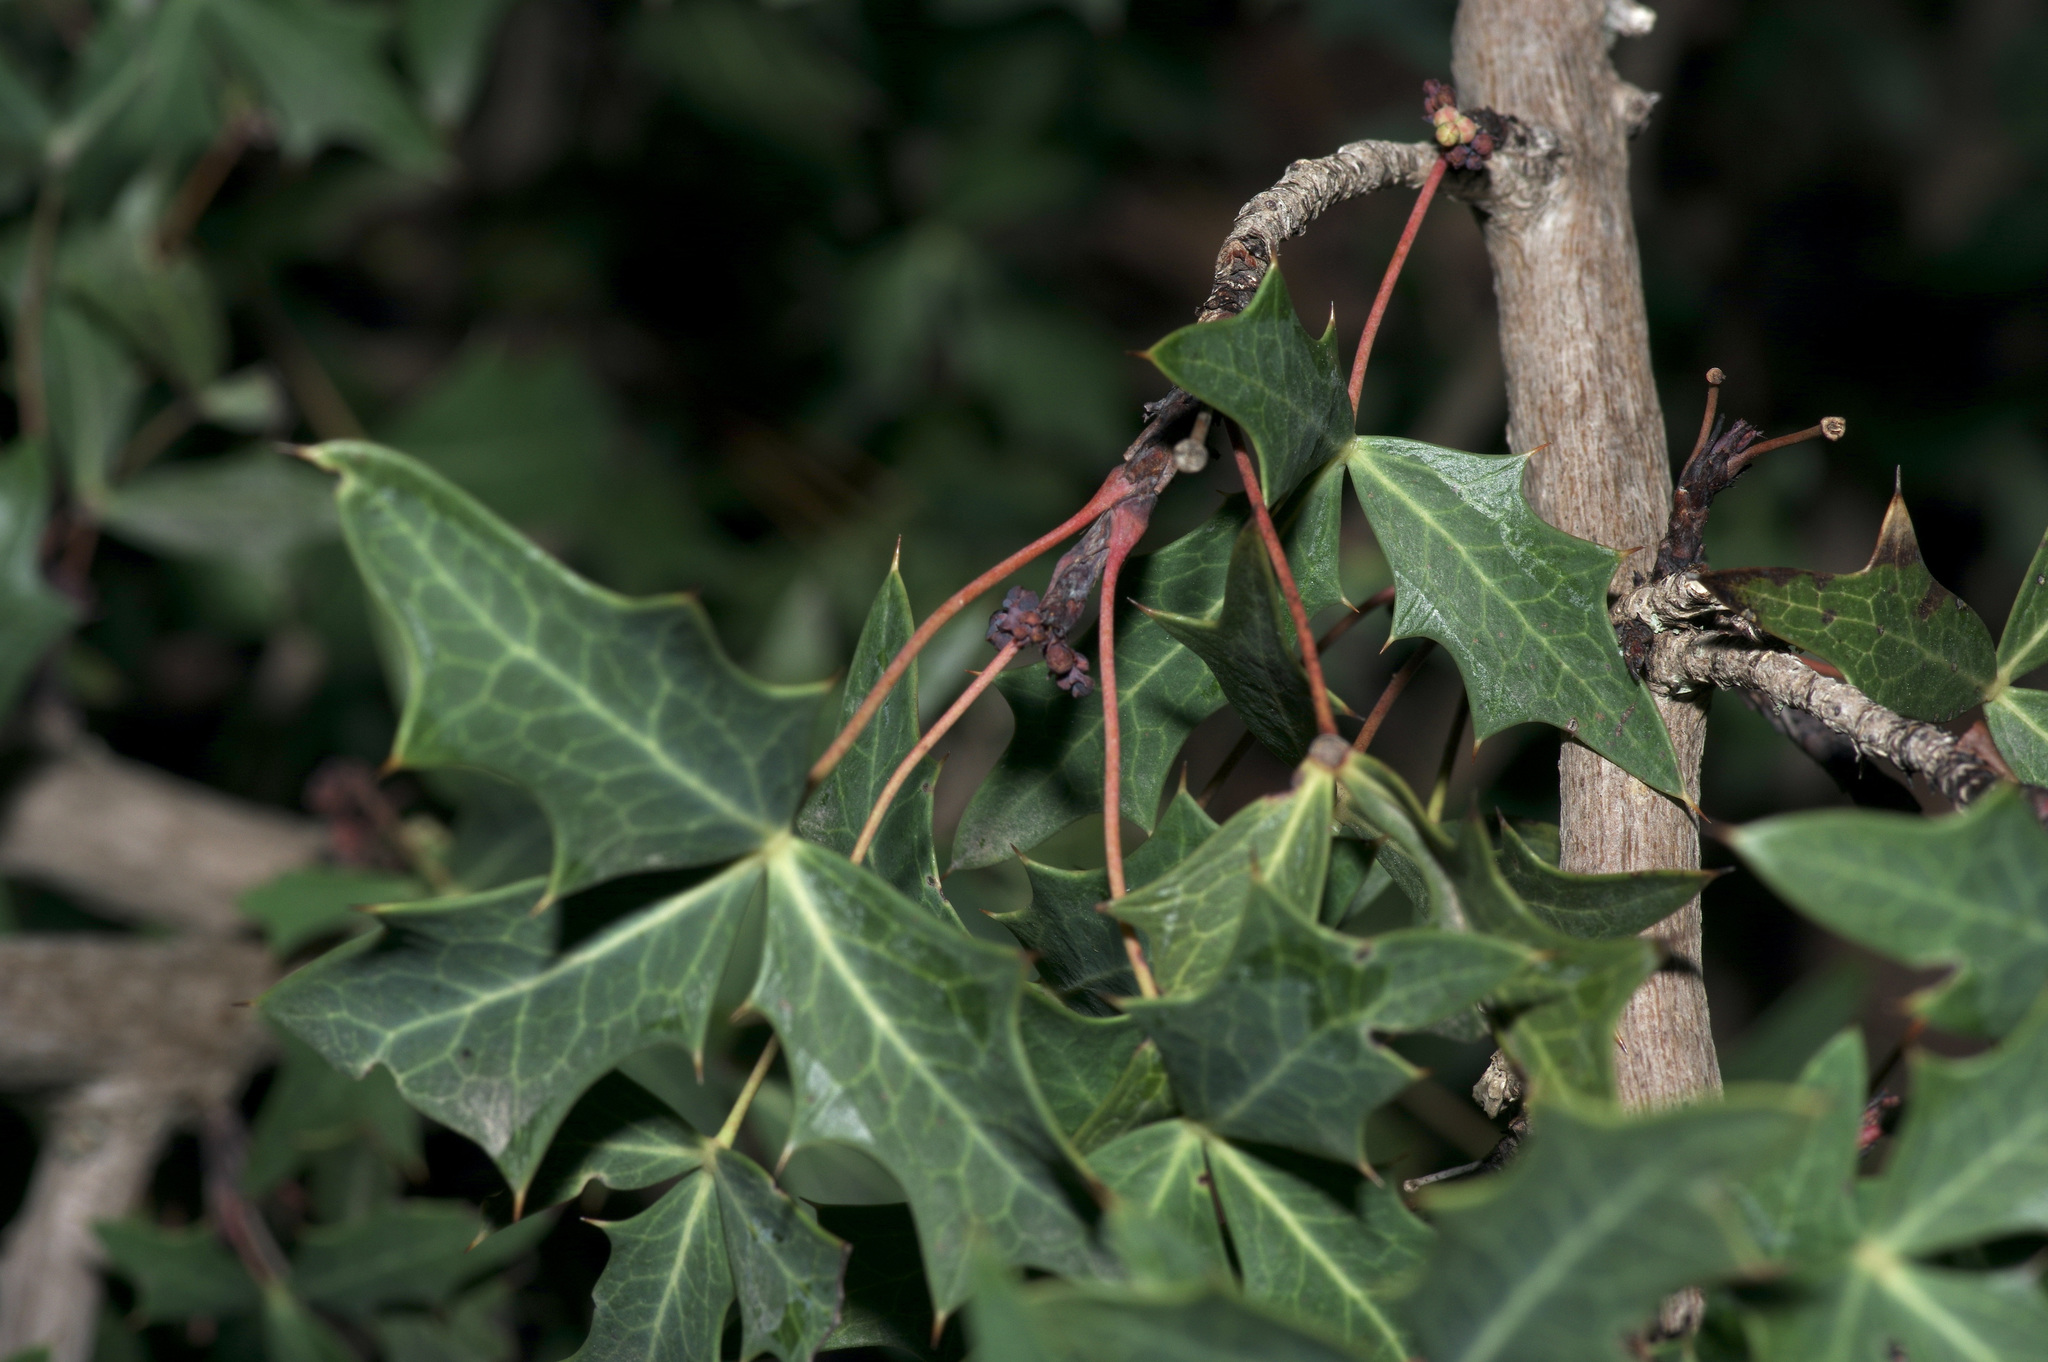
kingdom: Plantae
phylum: Tracheophyta
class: Magnoliopsida
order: Ranunculales
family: Berberidaceae
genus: Alloberberis
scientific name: Alloberberis trifoliolata
